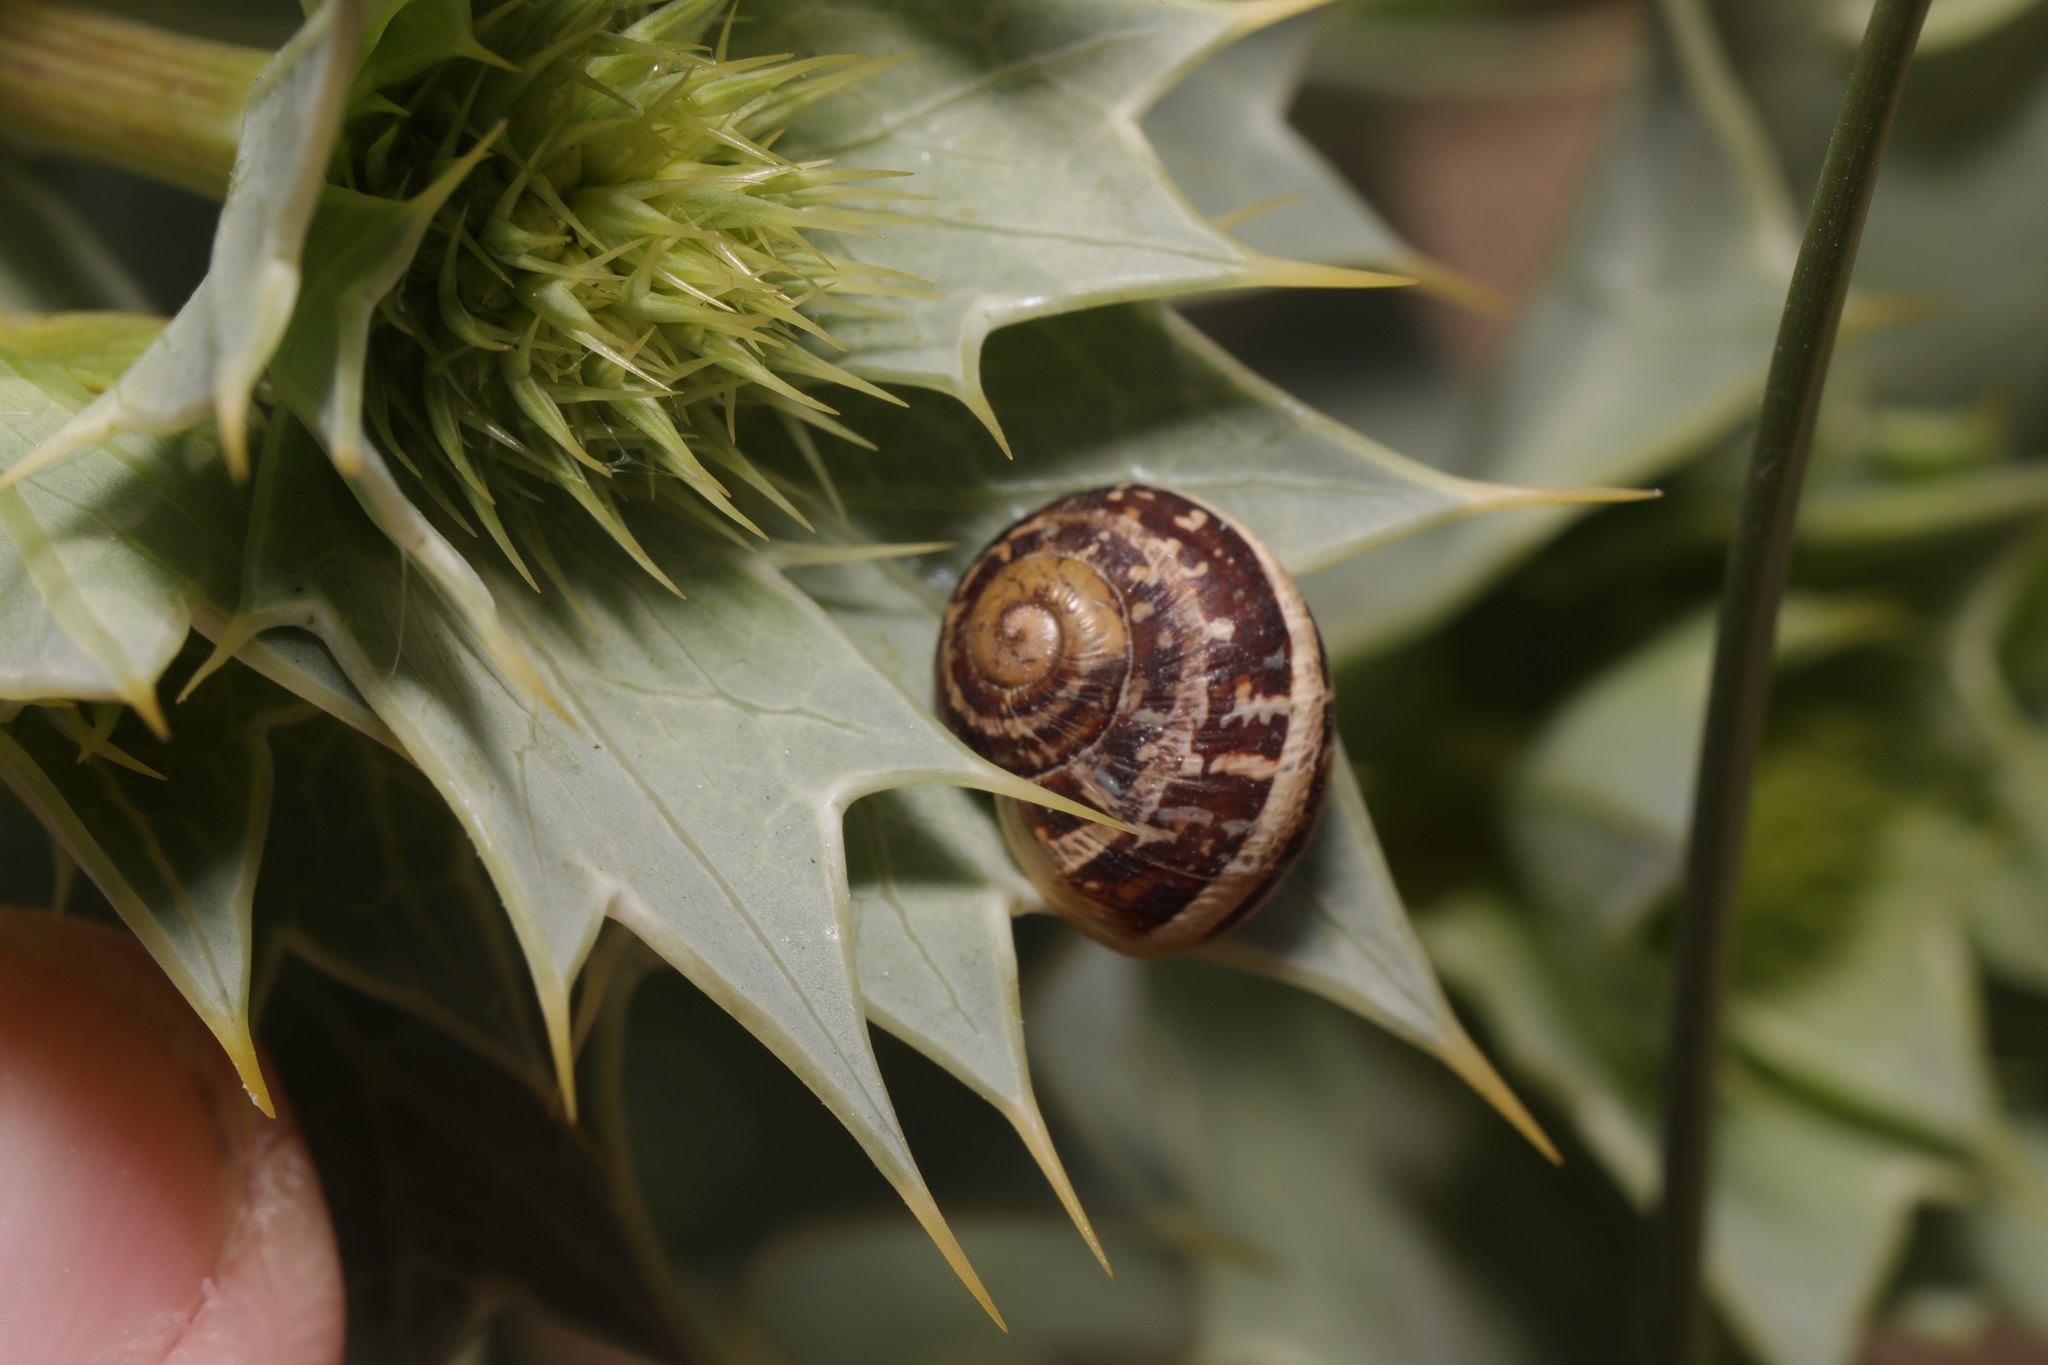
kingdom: Animalia
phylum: Mollusca
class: Gastropoda
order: Stylommatophora
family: Helicidae
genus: Cornu
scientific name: Cornu aspersum
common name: Brown garden snail
